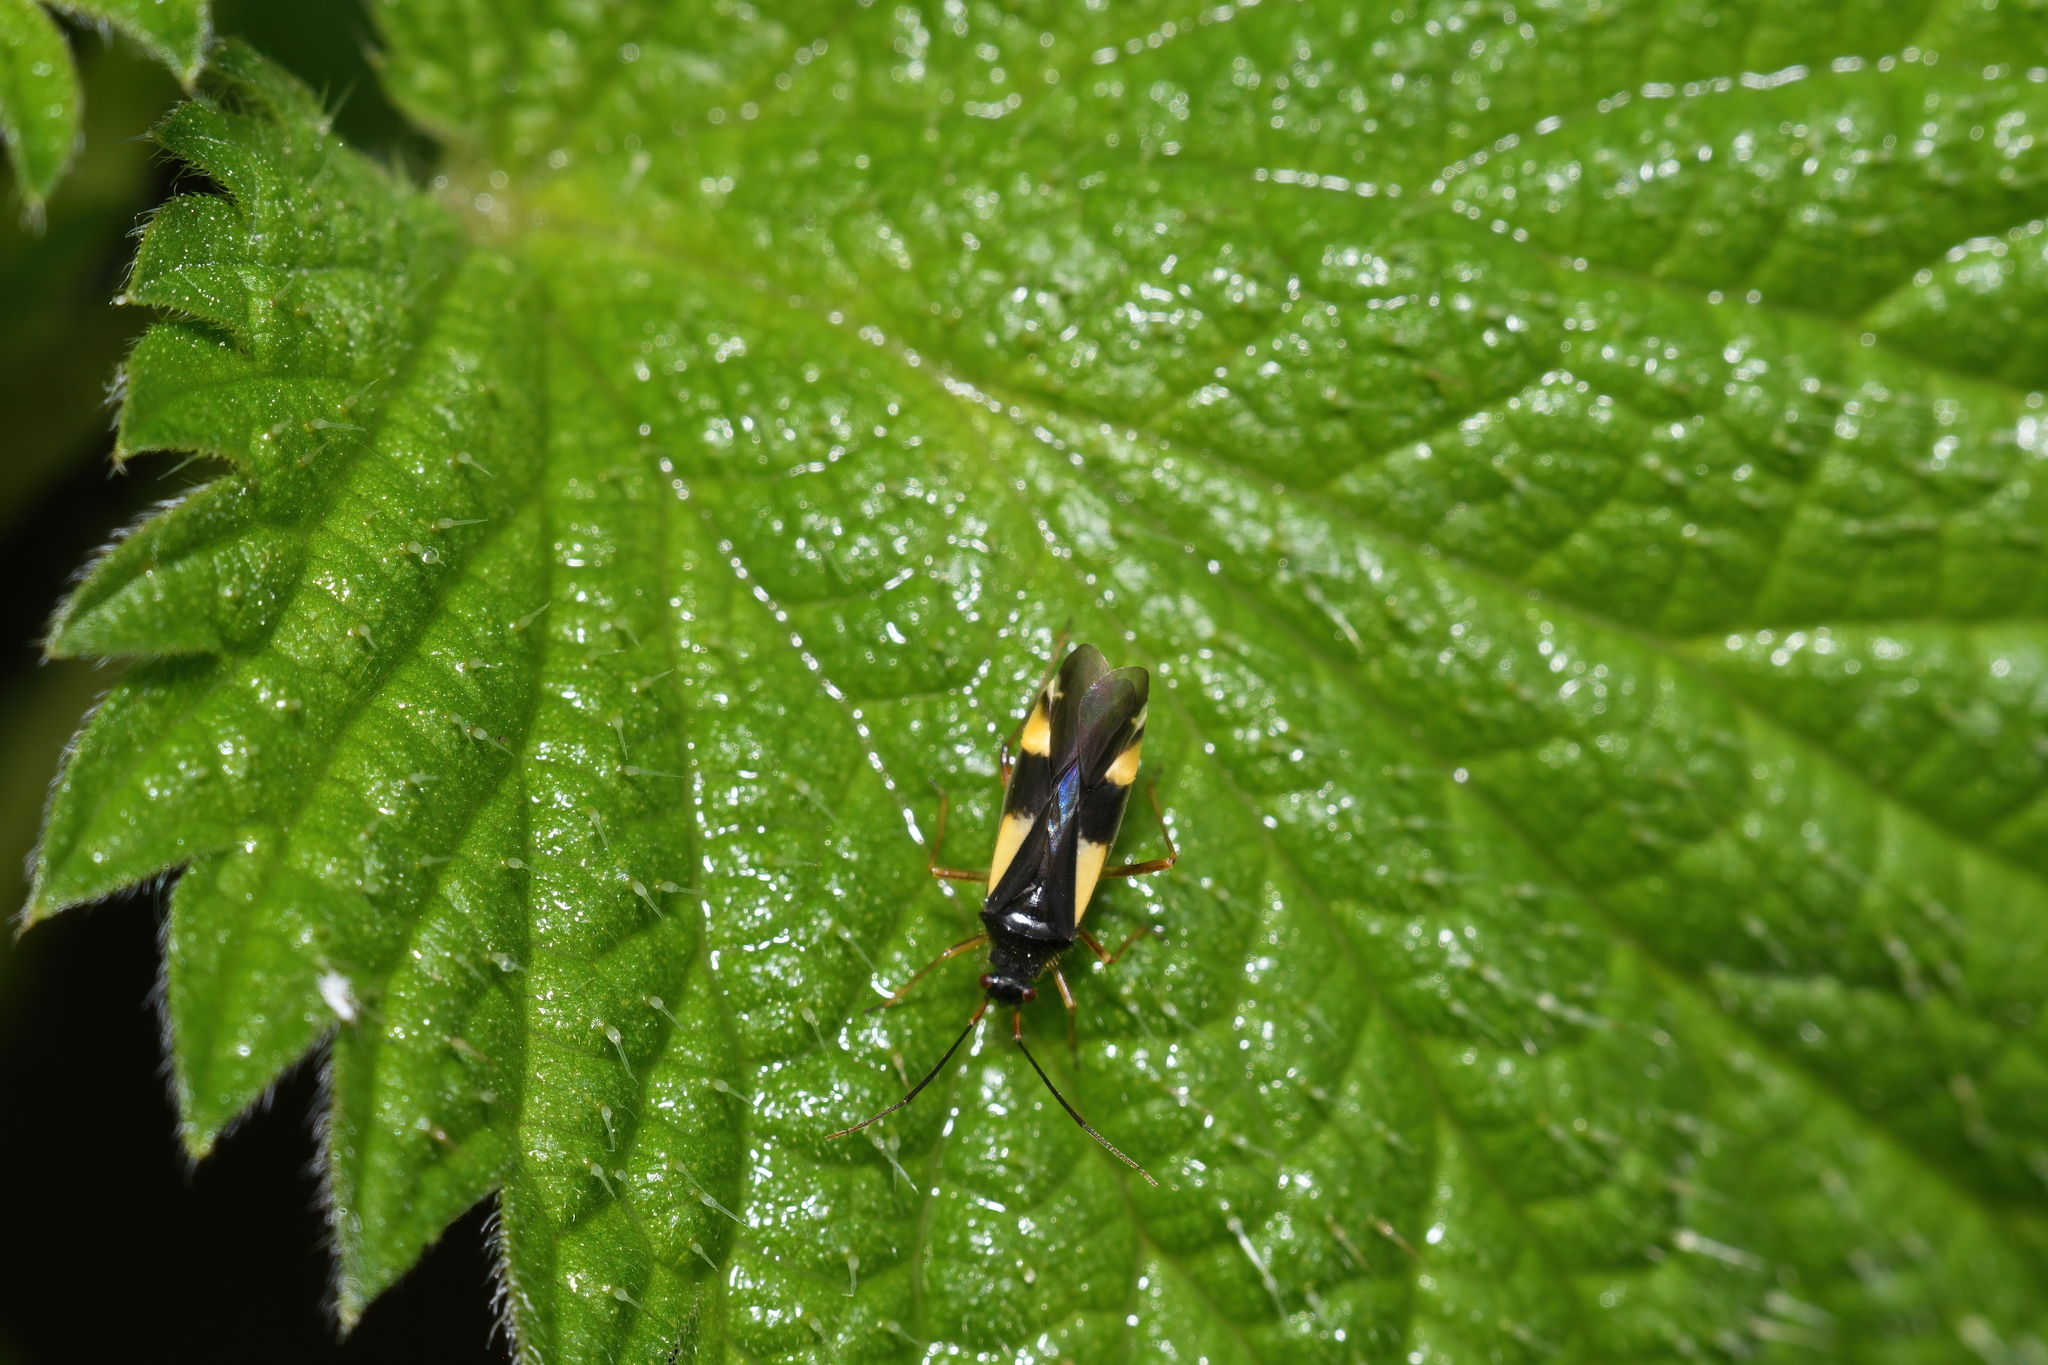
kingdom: Animalia
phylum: Arthropoda
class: Insecta
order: Hemiptera
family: Miridae
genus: Dryophilocoris
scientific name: Dryophilocoris flavoquadrimaculatus
